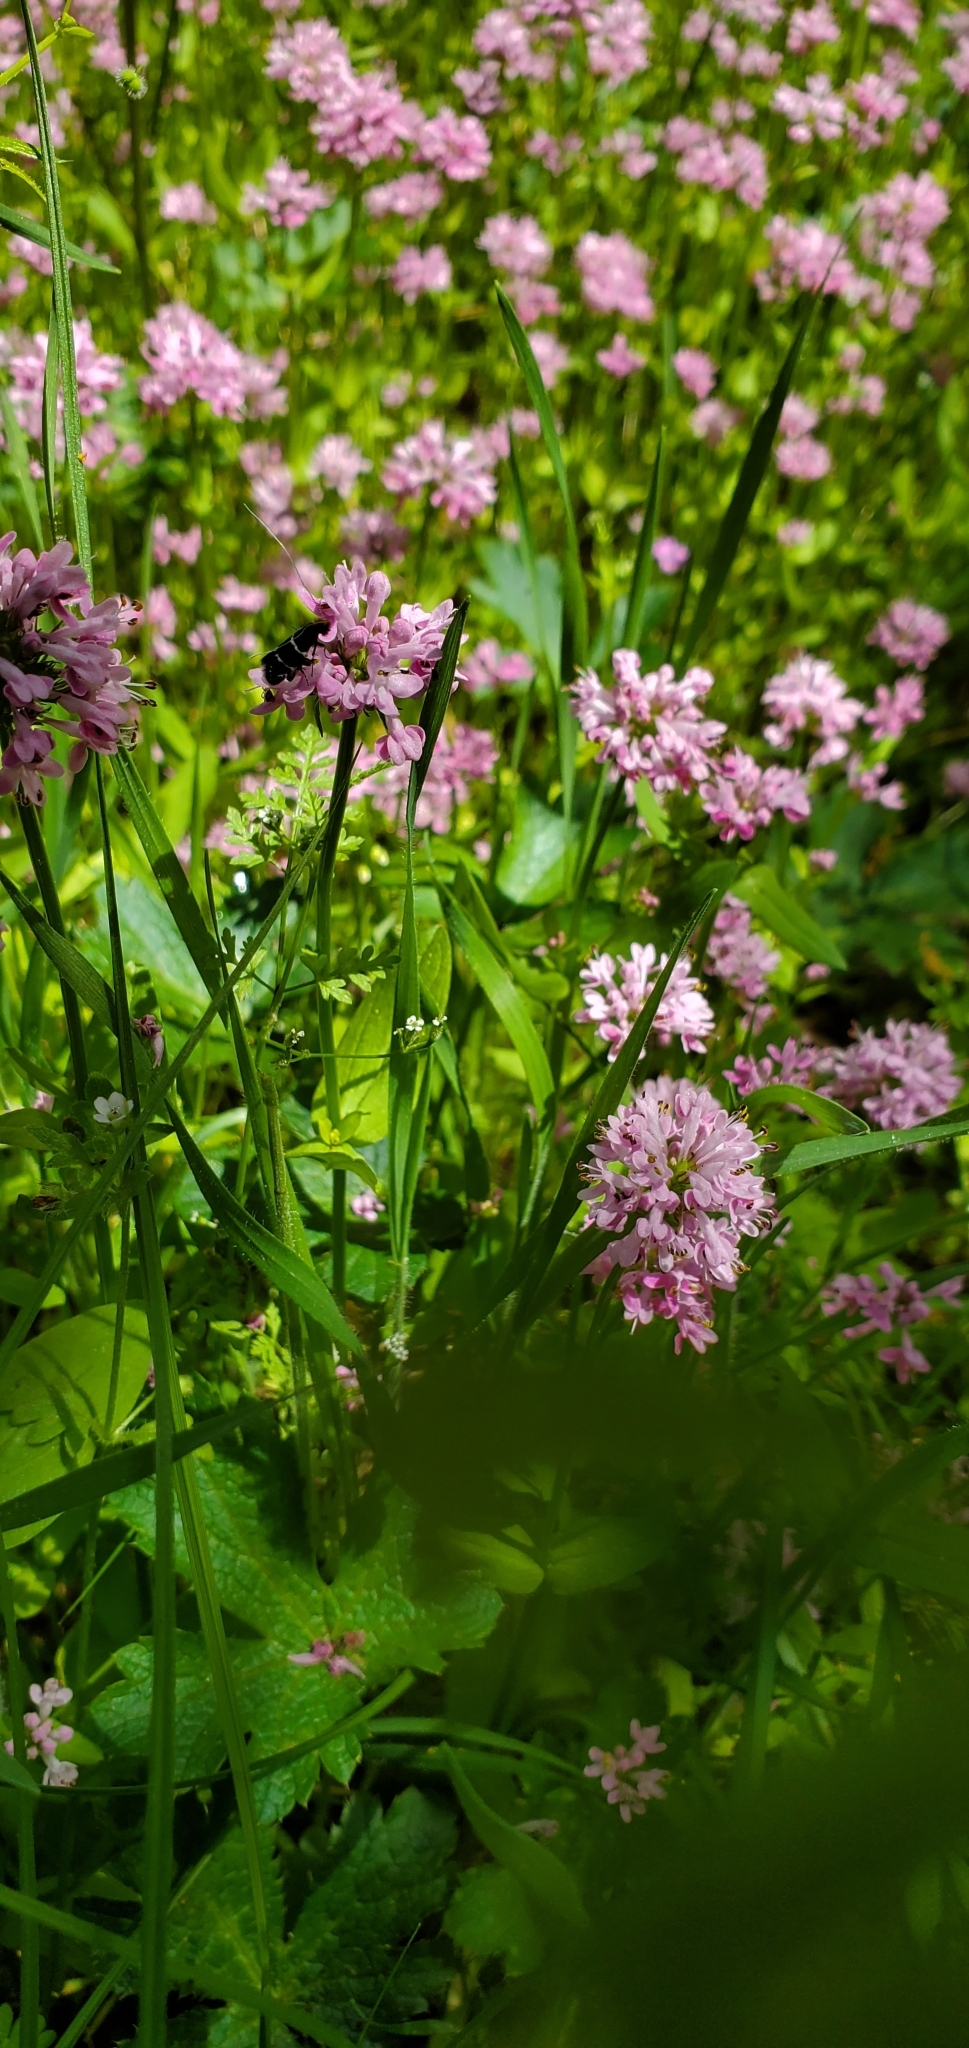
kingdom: Animalia
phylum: Arthropoda
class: Insecta
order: Lepidoptera
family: Adelidae
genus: Adela
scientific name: Adela septentrionella
